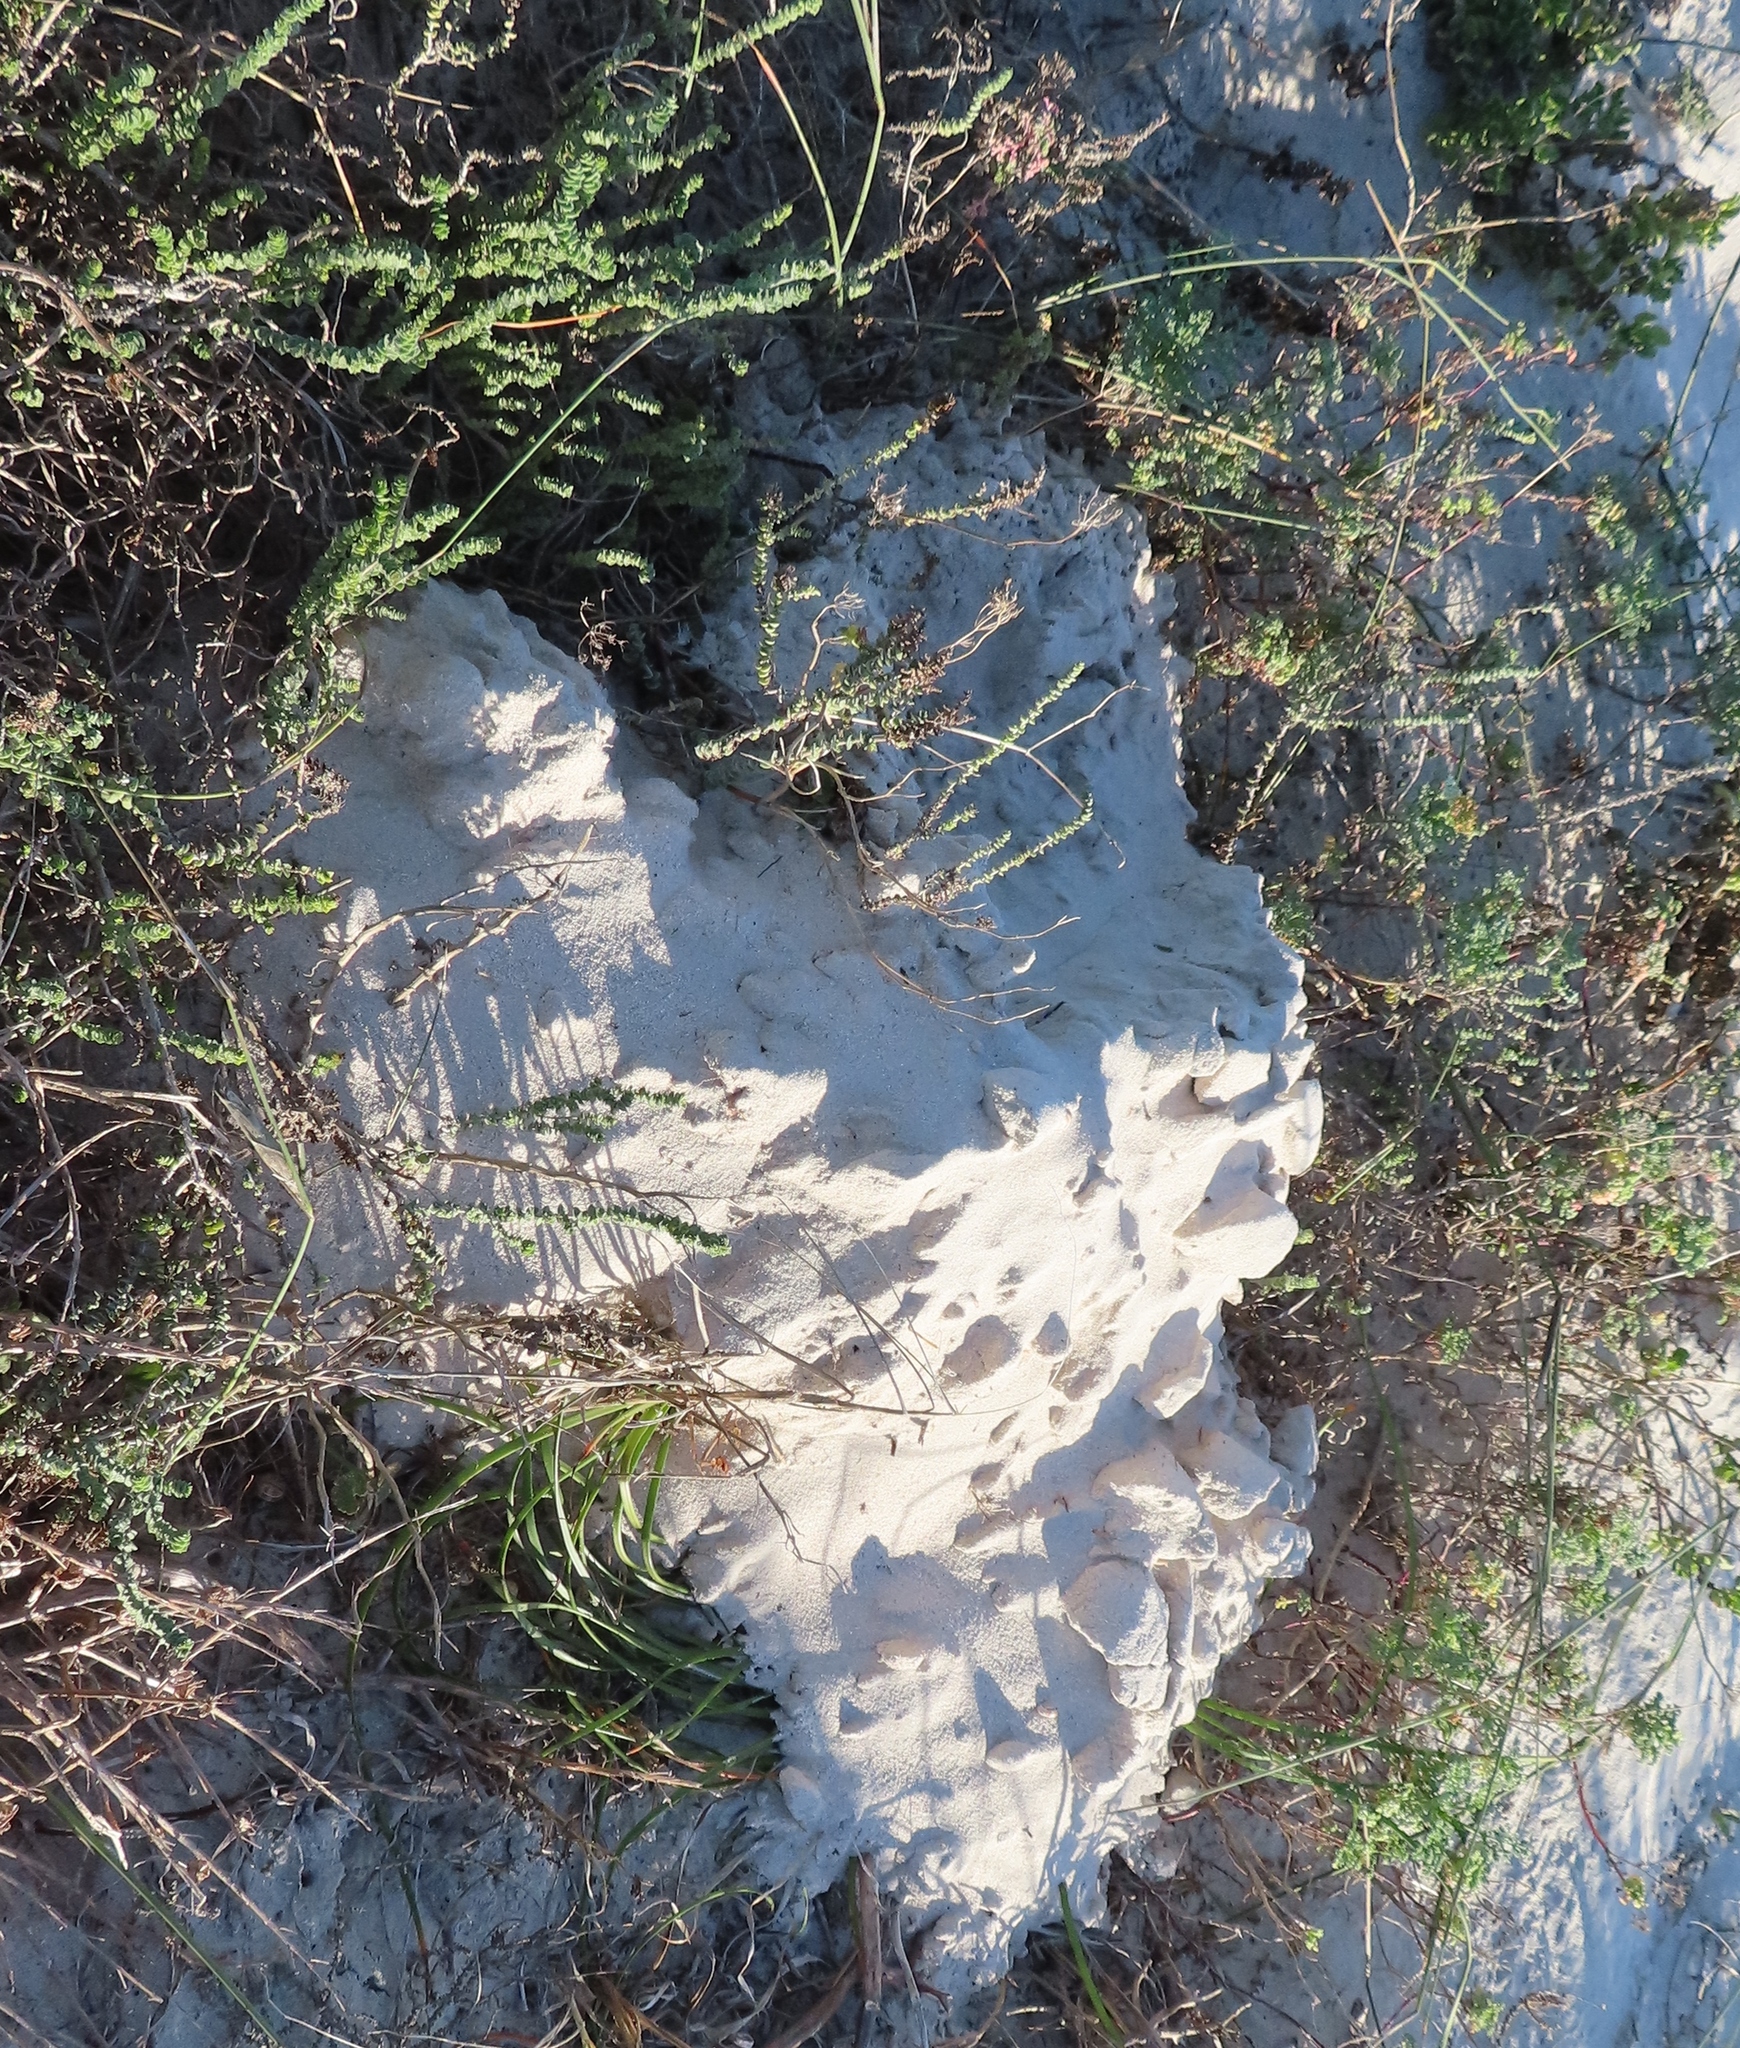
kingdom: Animalia
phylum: Chordata
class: Mammalia
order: Rodentia
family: Bathyergidae
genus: Bathyergus
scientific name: Bathyergus suillus
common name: Cape dune mole rat
